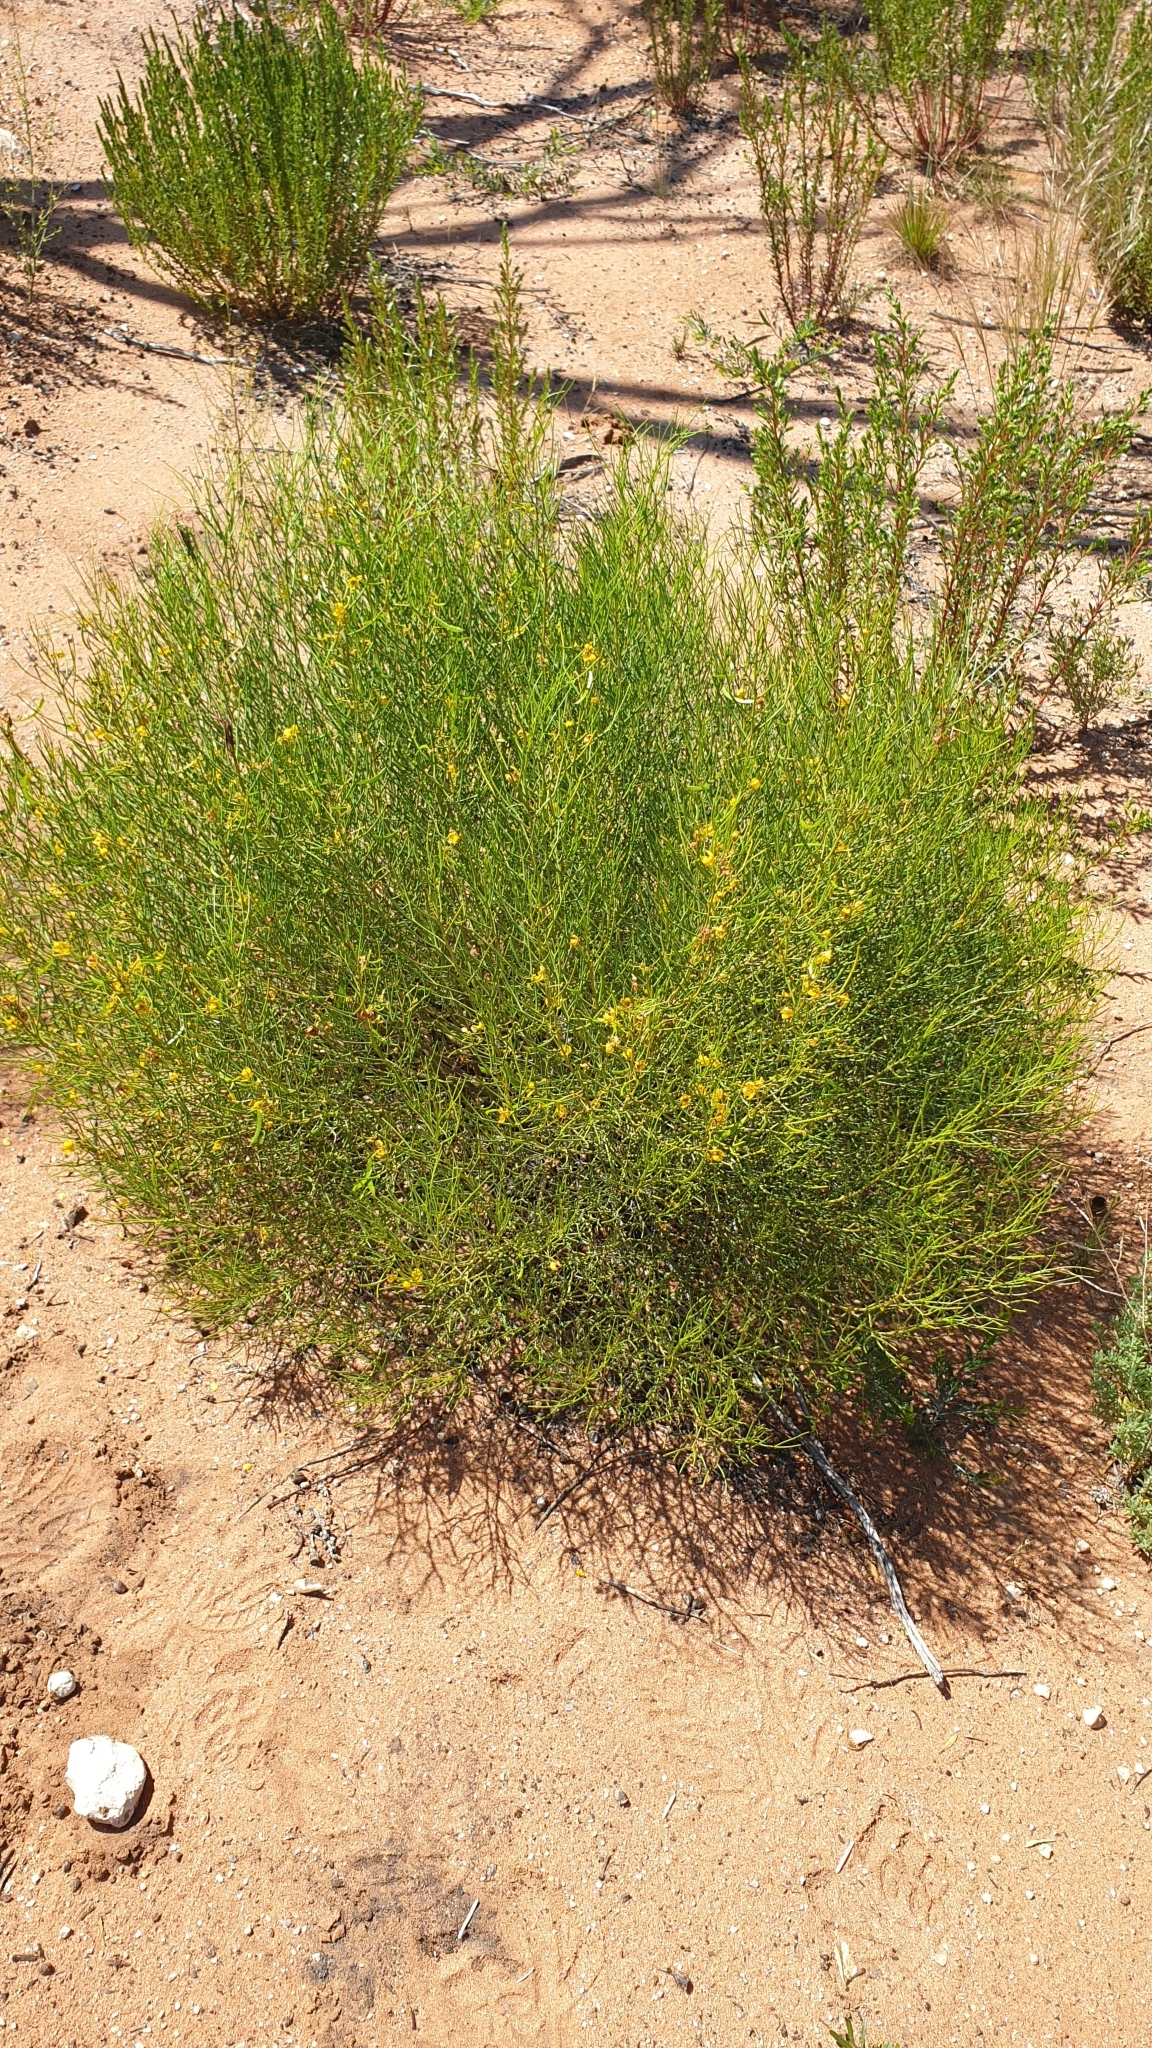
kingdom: Plantae
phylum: Tracheophyta
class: Magnoliopsida
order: Fabales
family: Fabaceae
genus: Senna
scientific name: Senna artemisioides
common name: Burnt-leaved acacia
